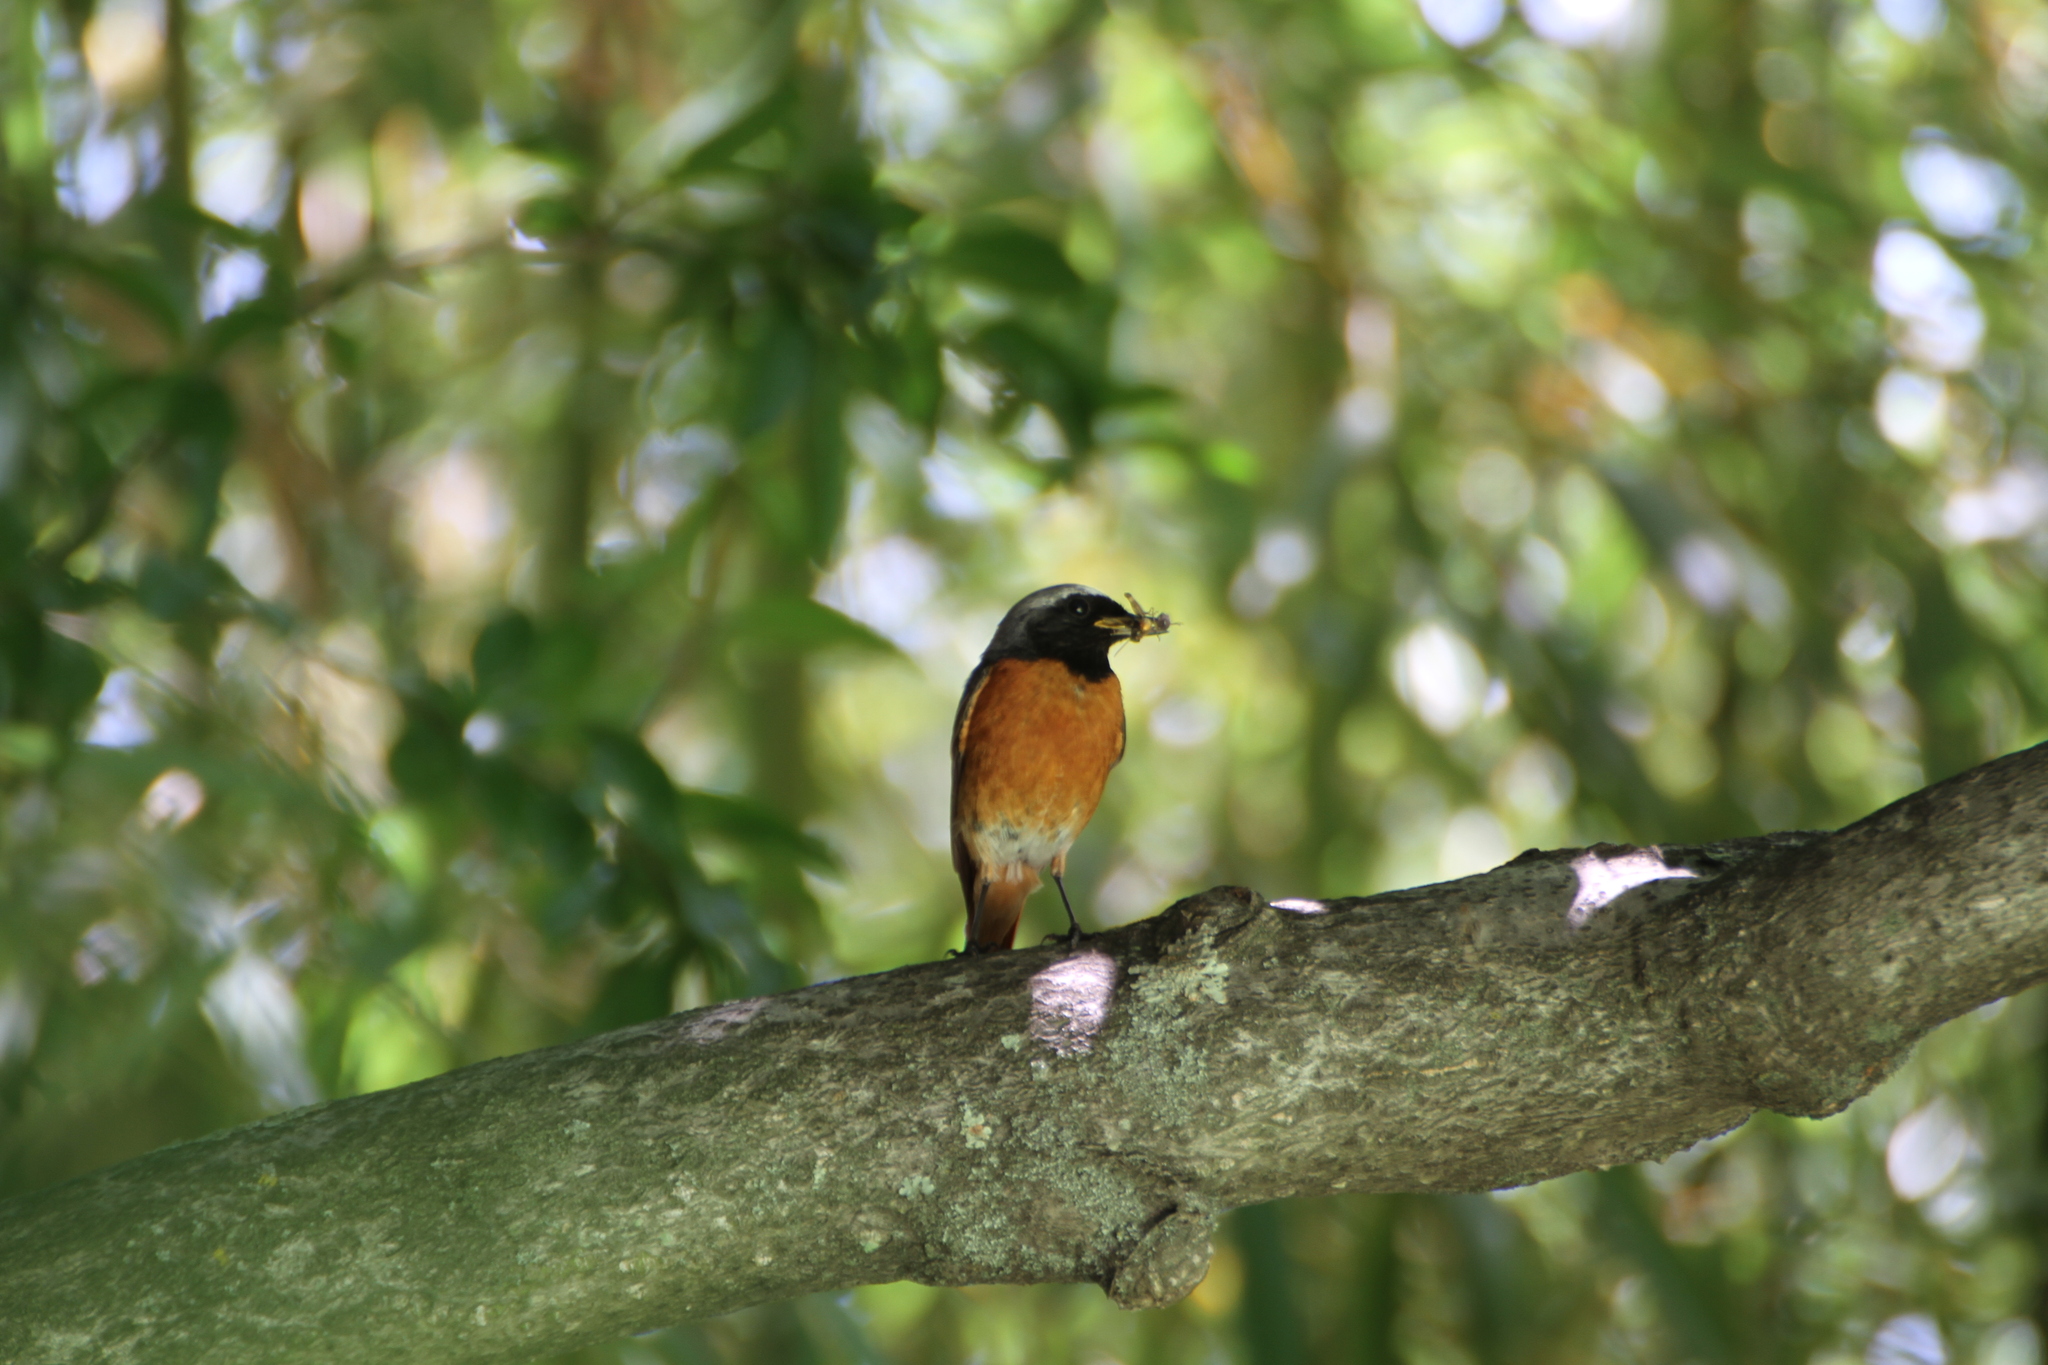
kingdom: Animalia
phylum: Chordata
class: Aves
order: Passeriformes
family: Muscicapidae
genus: Phoenicurus
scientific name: Phoenicurus phoenicurus
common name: Common redstart
